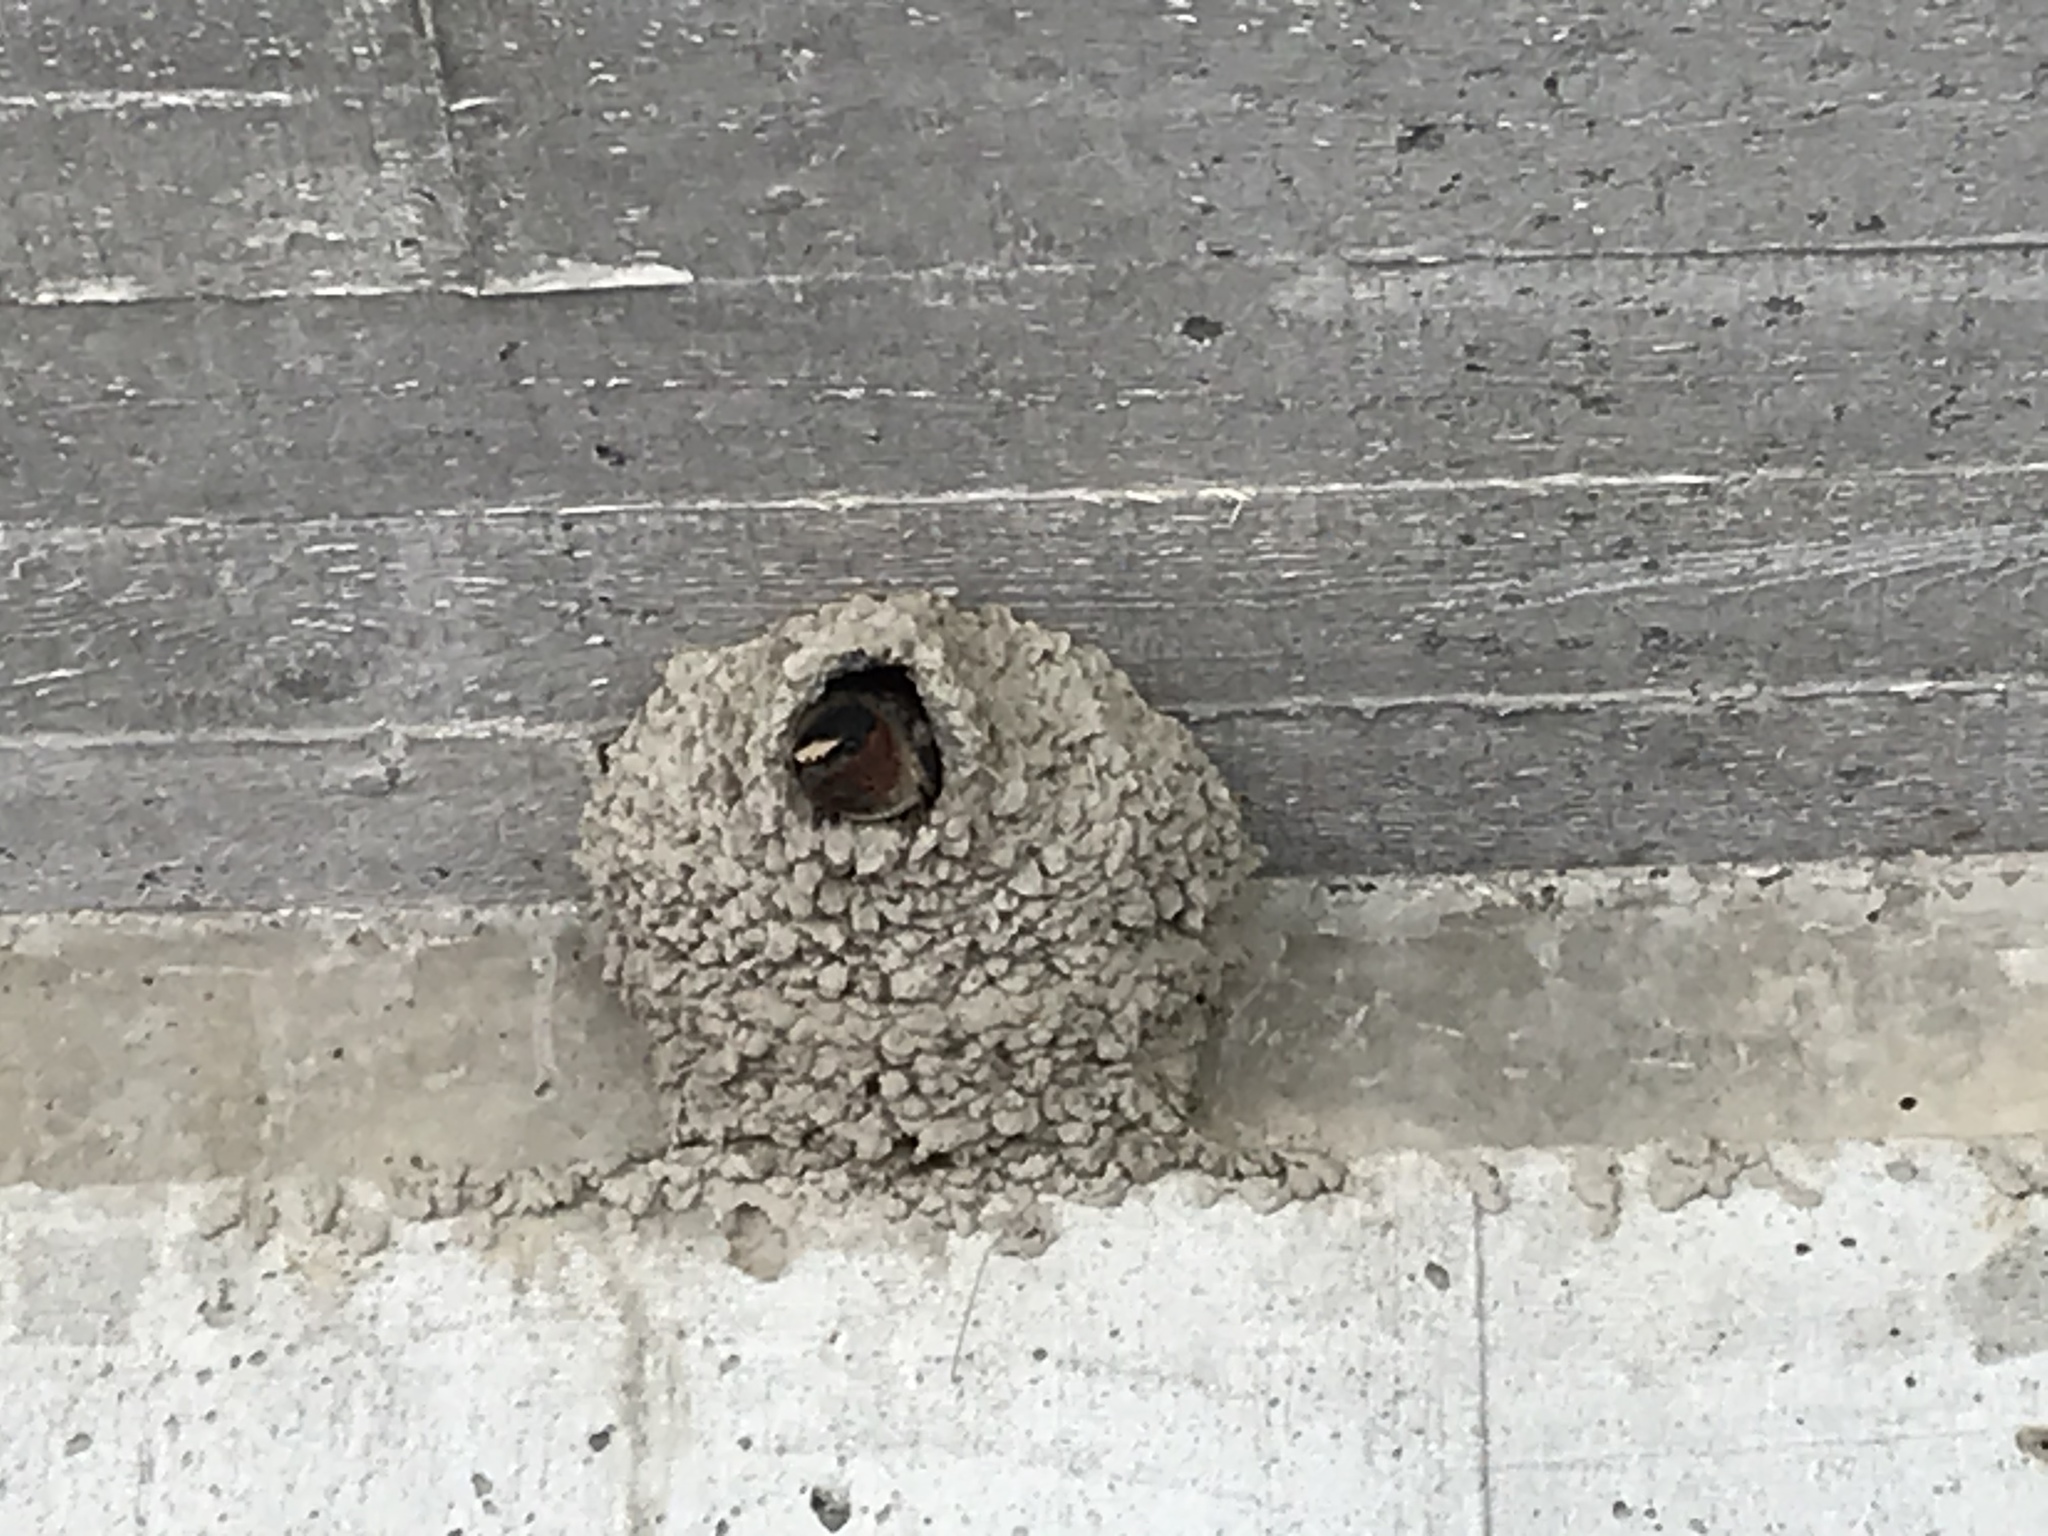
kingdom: Animalia
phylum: Chordata
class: Aves
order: Passeriformes
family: Hirundinidae
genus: Petrochelidon
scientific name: Petrochelidon pyrrhonota
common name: American cliff swallow
